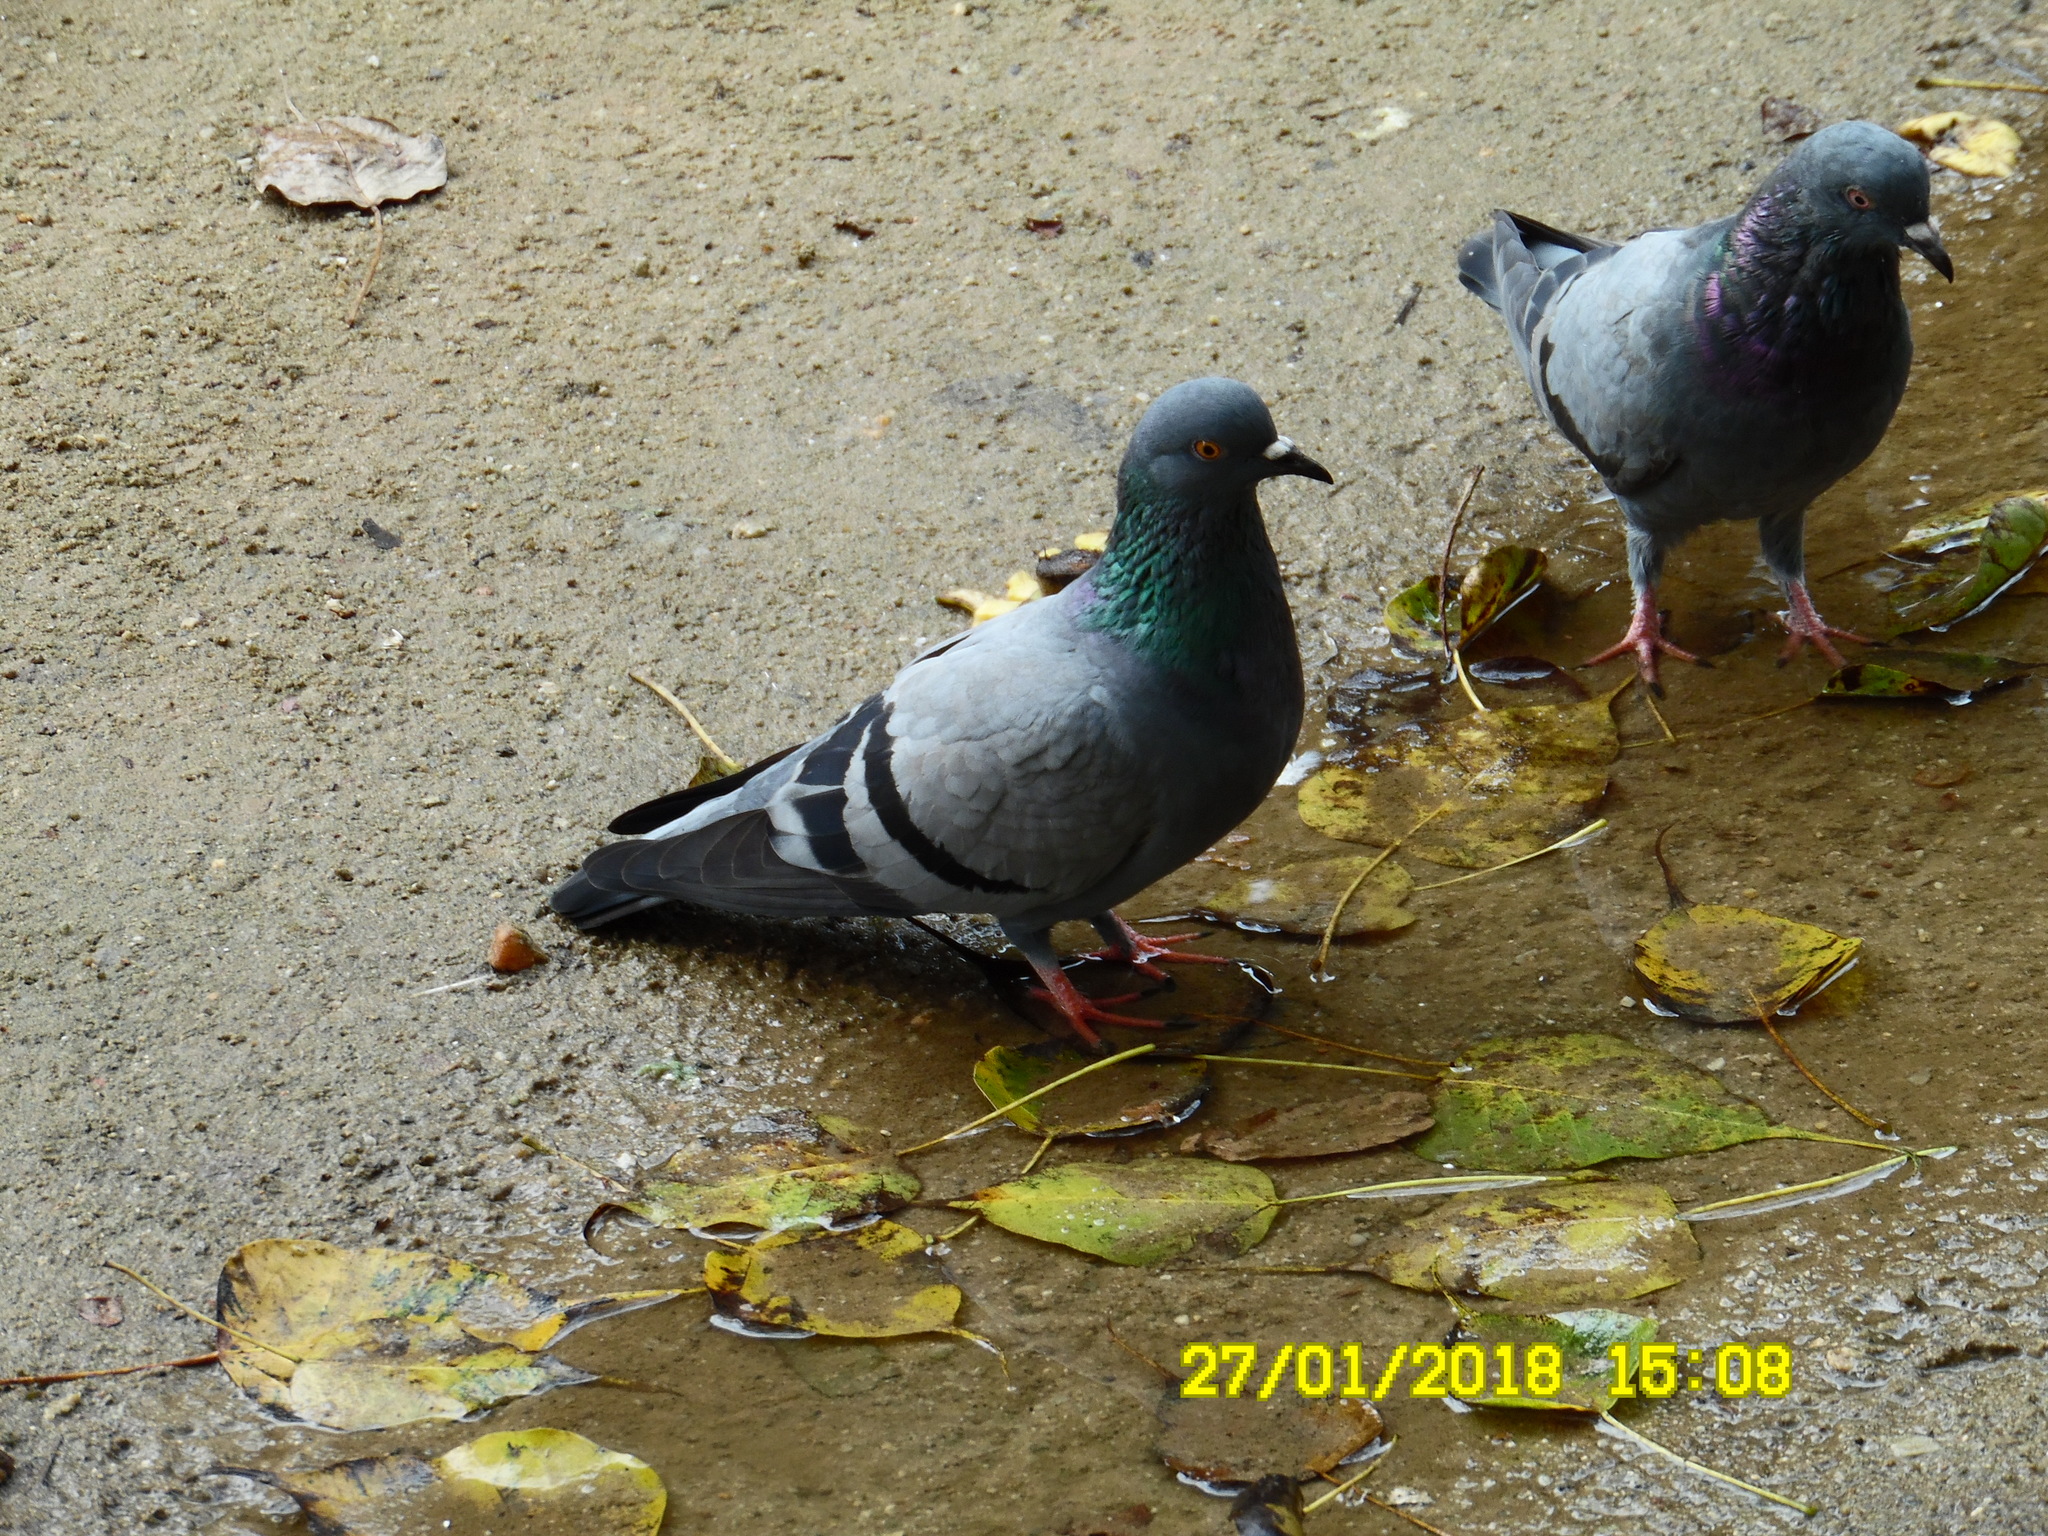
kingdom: Animalia
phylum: Chordata
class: Aves
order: Columbiformes
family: Columbidae
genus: Columba
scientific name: Columba livia
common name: Rock pigeon
